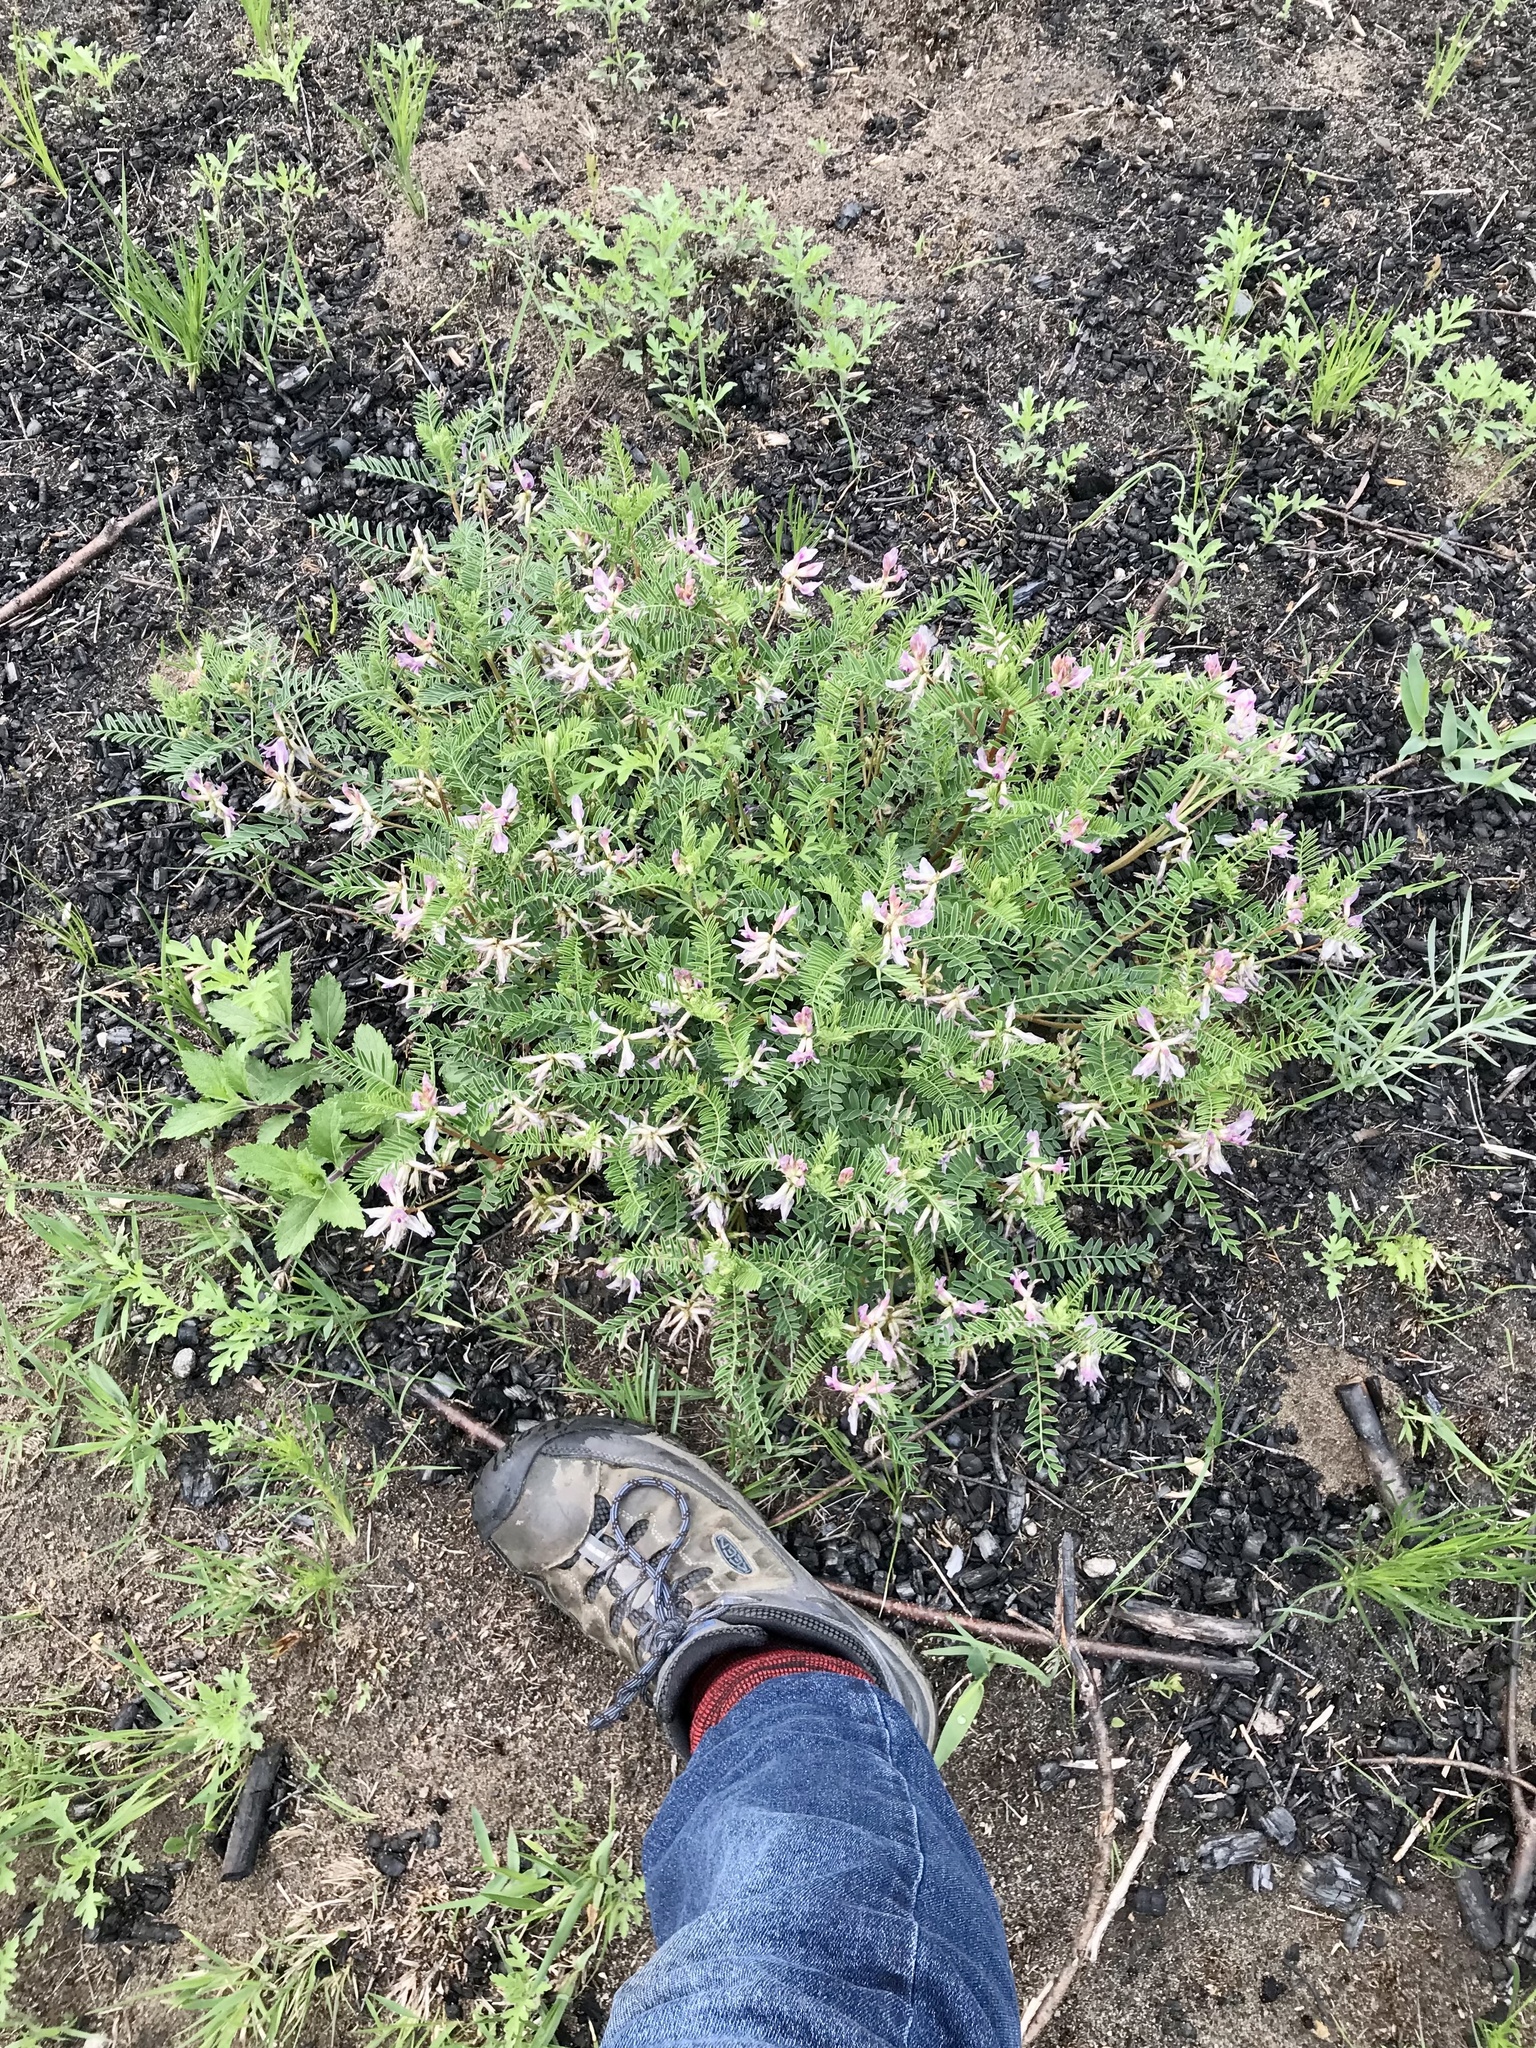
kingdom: Plantae
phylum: Tracheophyta
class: Magnoliopsida
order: Fabales
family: Fabaceae
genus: Astragalus
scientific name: Astragalus crassicarpus
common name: Ground-plum milk-vetch
